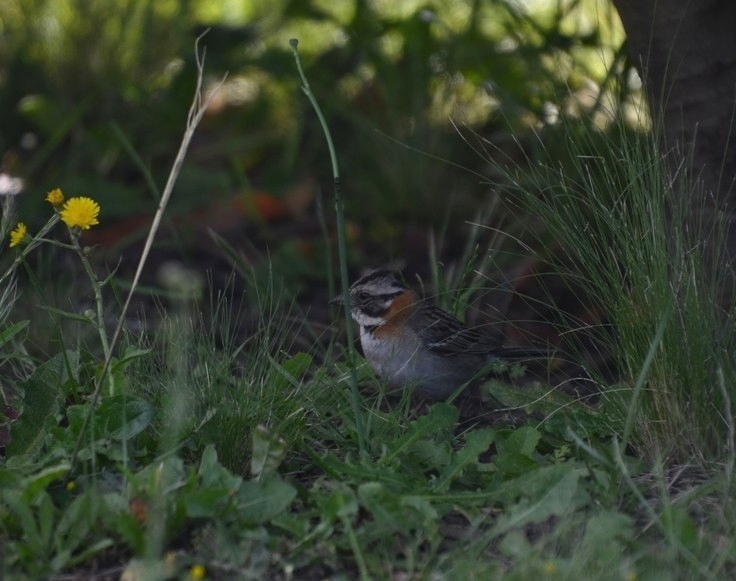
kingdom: Animalia
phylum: Chordata
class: Aves
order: Passeriformes
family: Passerellidae
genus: Zonotrichia
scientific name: Zonotrichia capensis
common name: Rufous-collared sparrow
